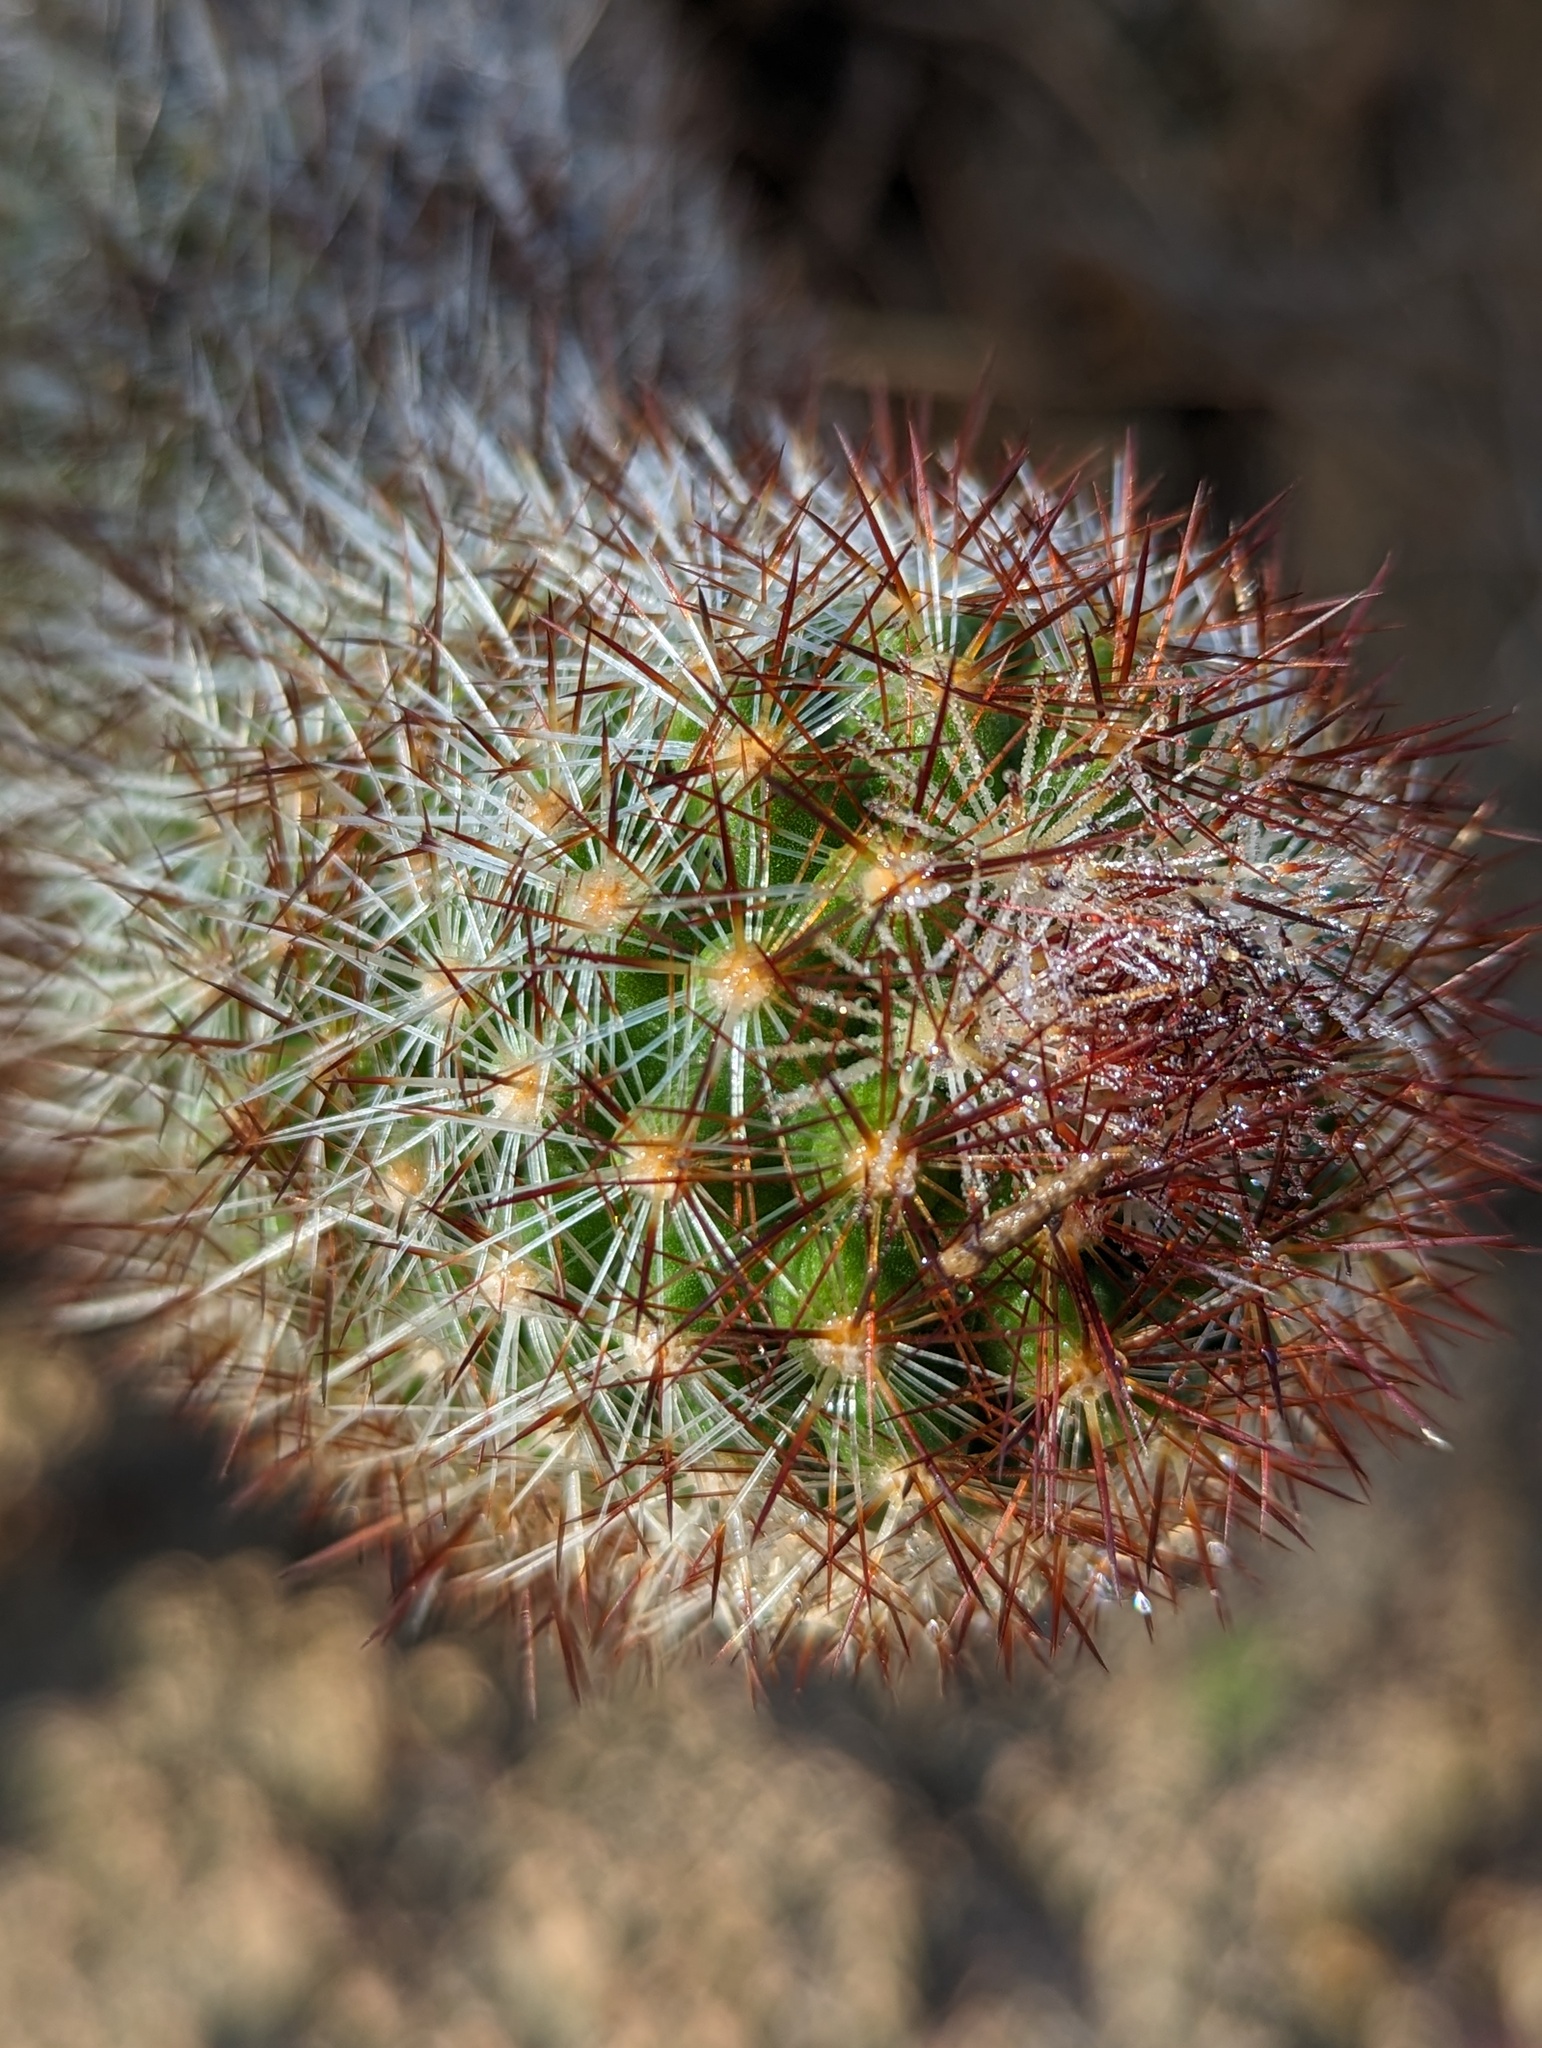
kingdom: Plantae
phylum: Tracheophyta
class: Magnoliopsida
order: Caryophyllales
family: Cactaceae
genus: Cochemiea
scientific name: Cochemiea phitauiana
